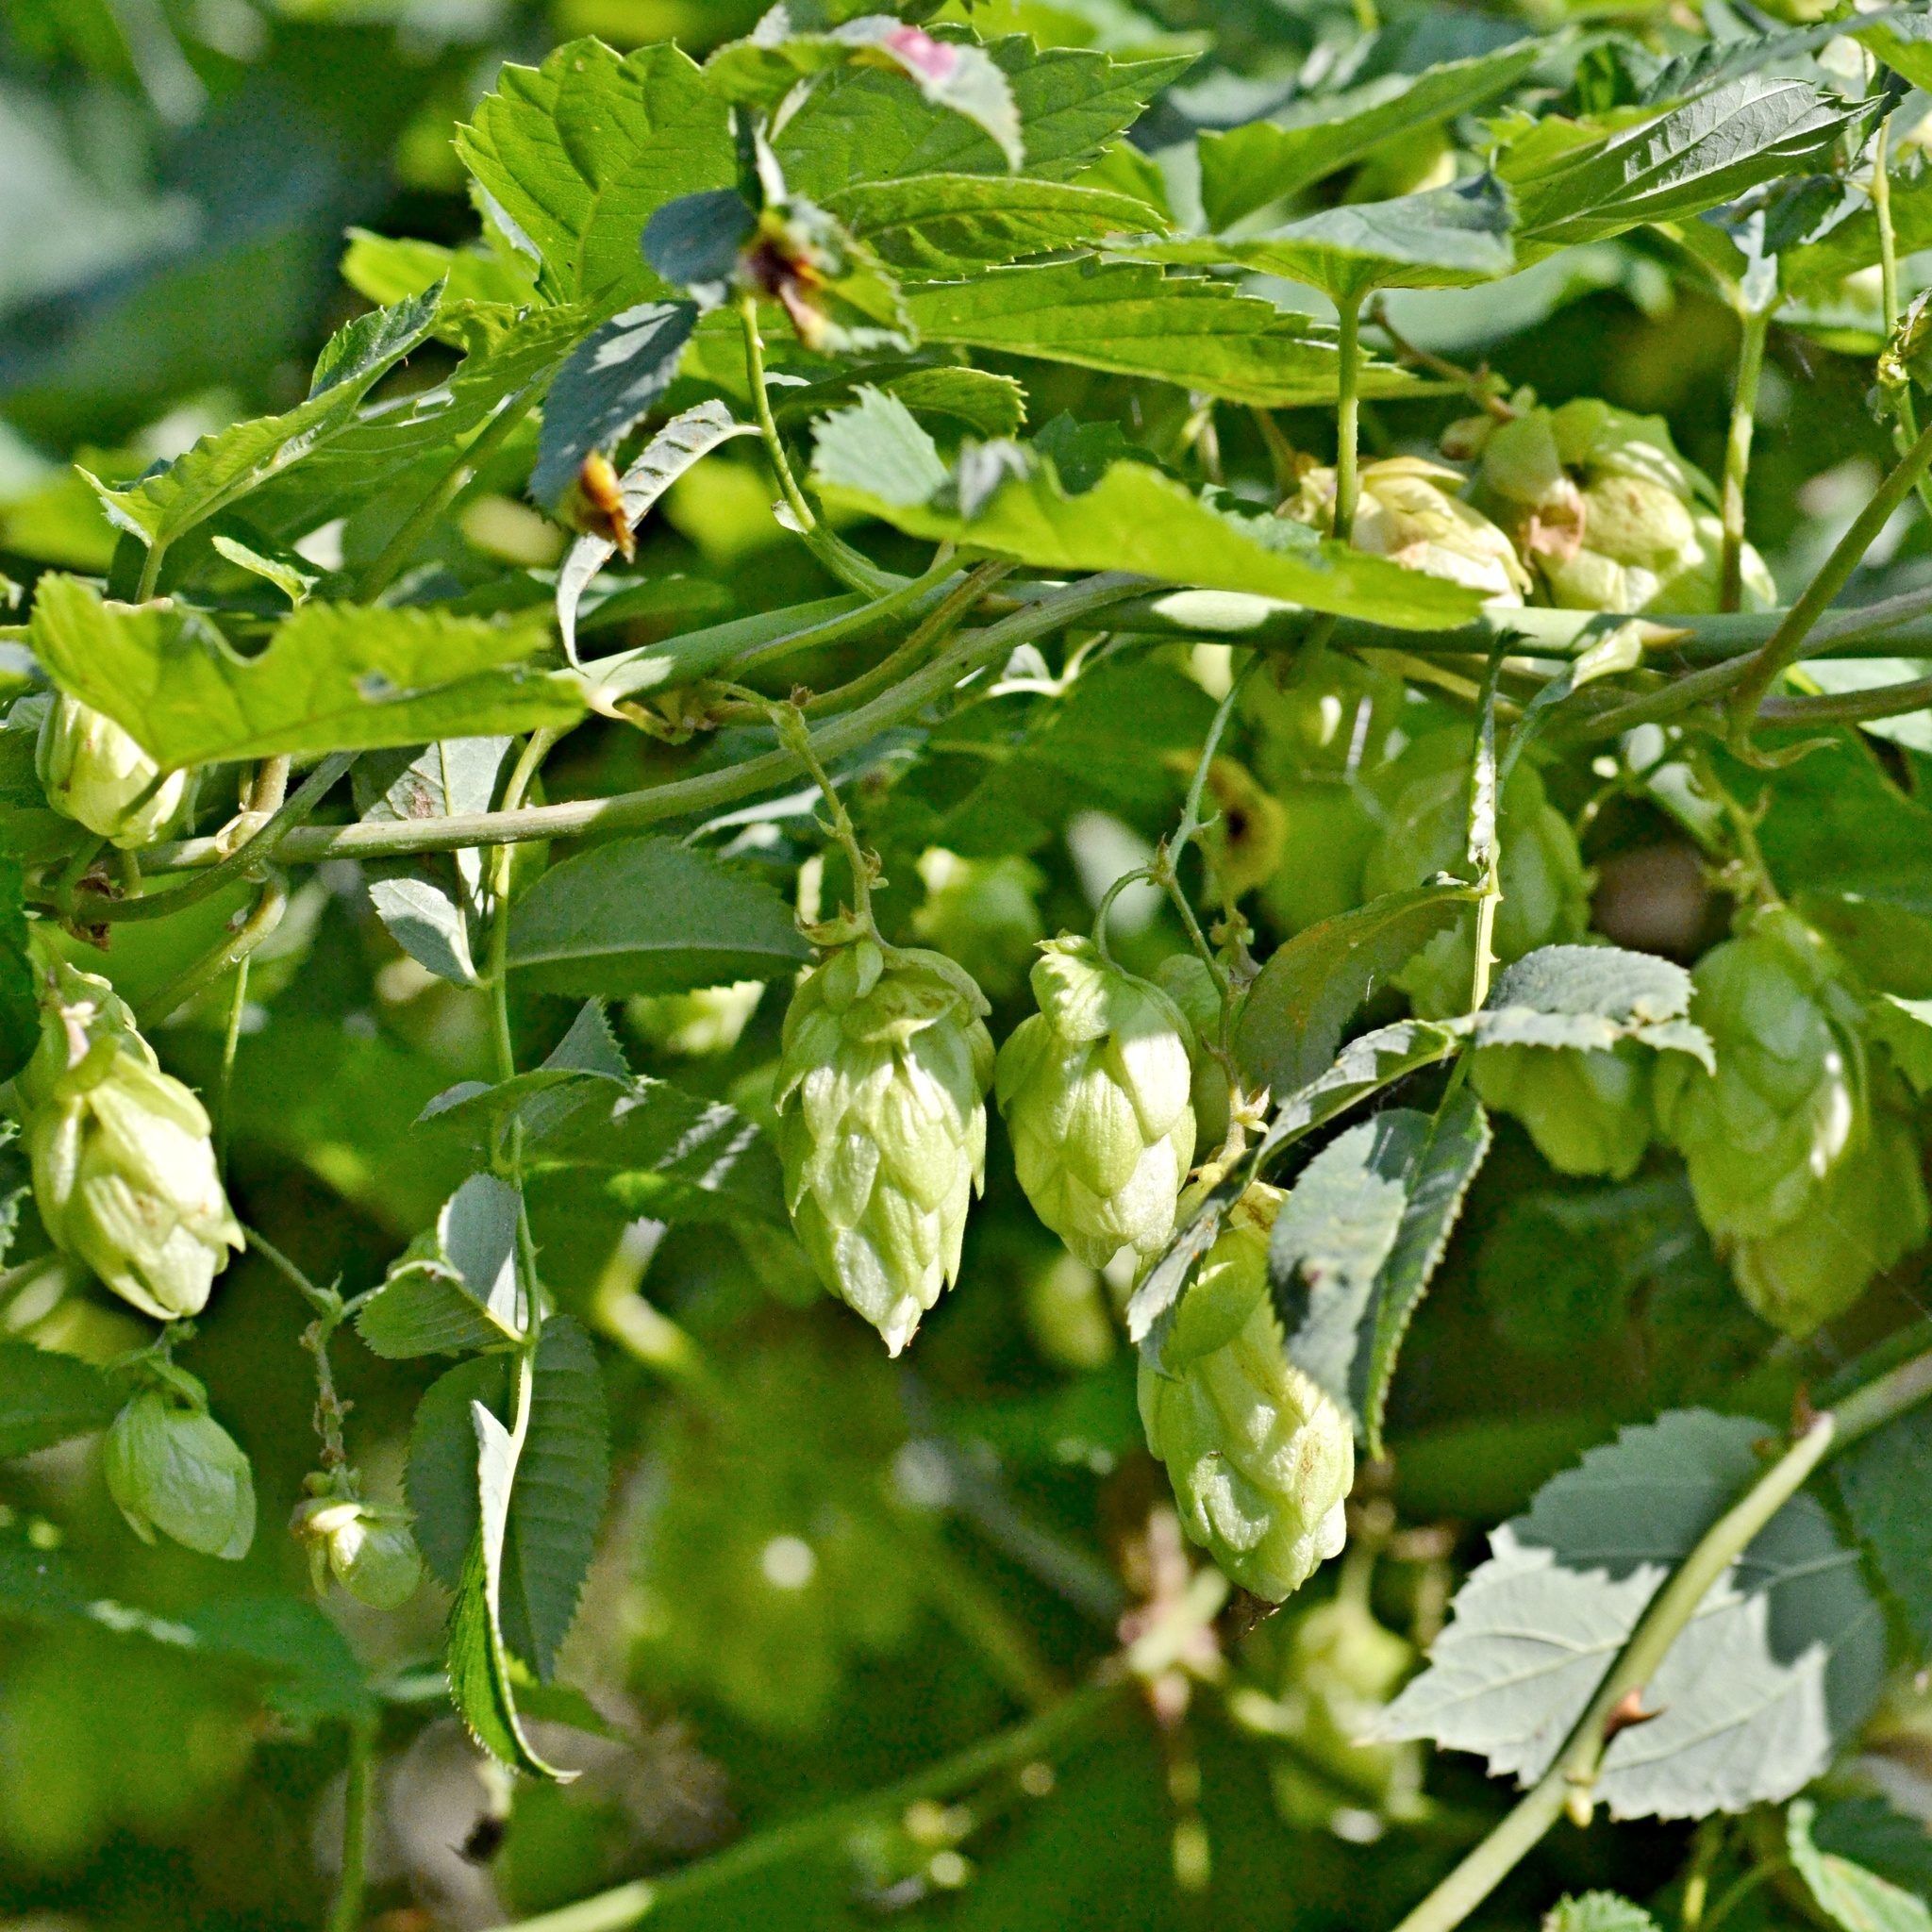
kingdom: Plantae
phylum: Tracheophyta
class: Magnoliopsida
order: Rosales
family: Cannabaceae
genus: Humulus
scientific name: Humulus lupulus
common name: Hop
